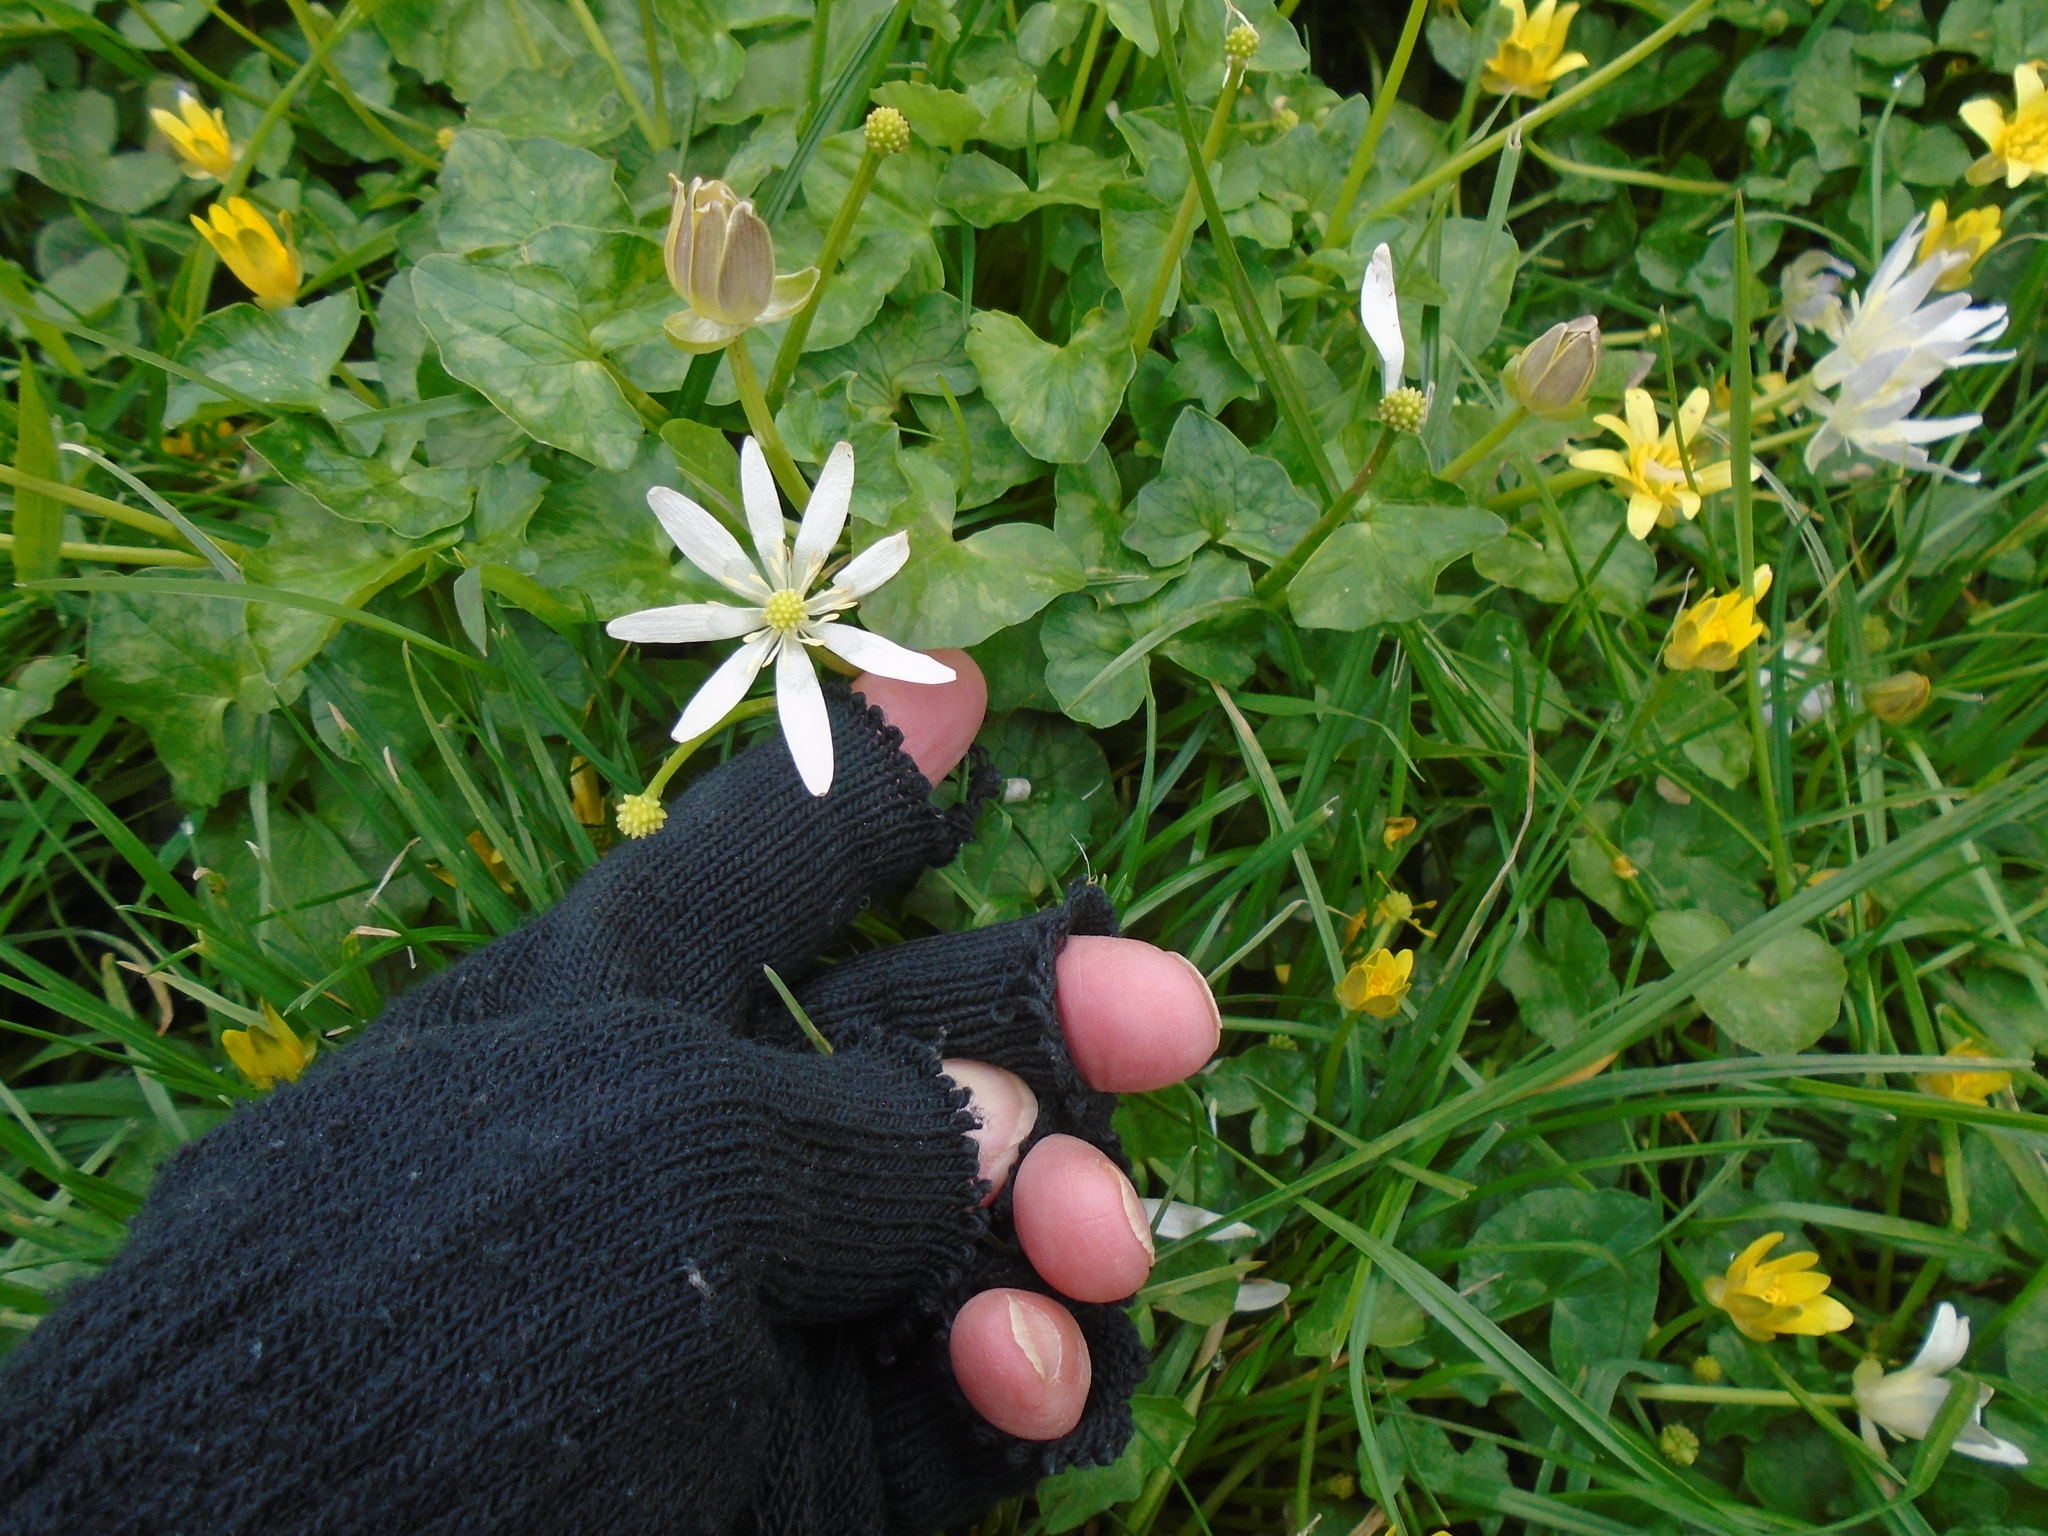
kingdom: Plantae
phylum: Tracheophyta
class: Magnoliopsida
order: Ranunculales
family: Ranunculaceae
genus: Ficaria
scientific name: Ficaria verna
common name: Lesser celandine
